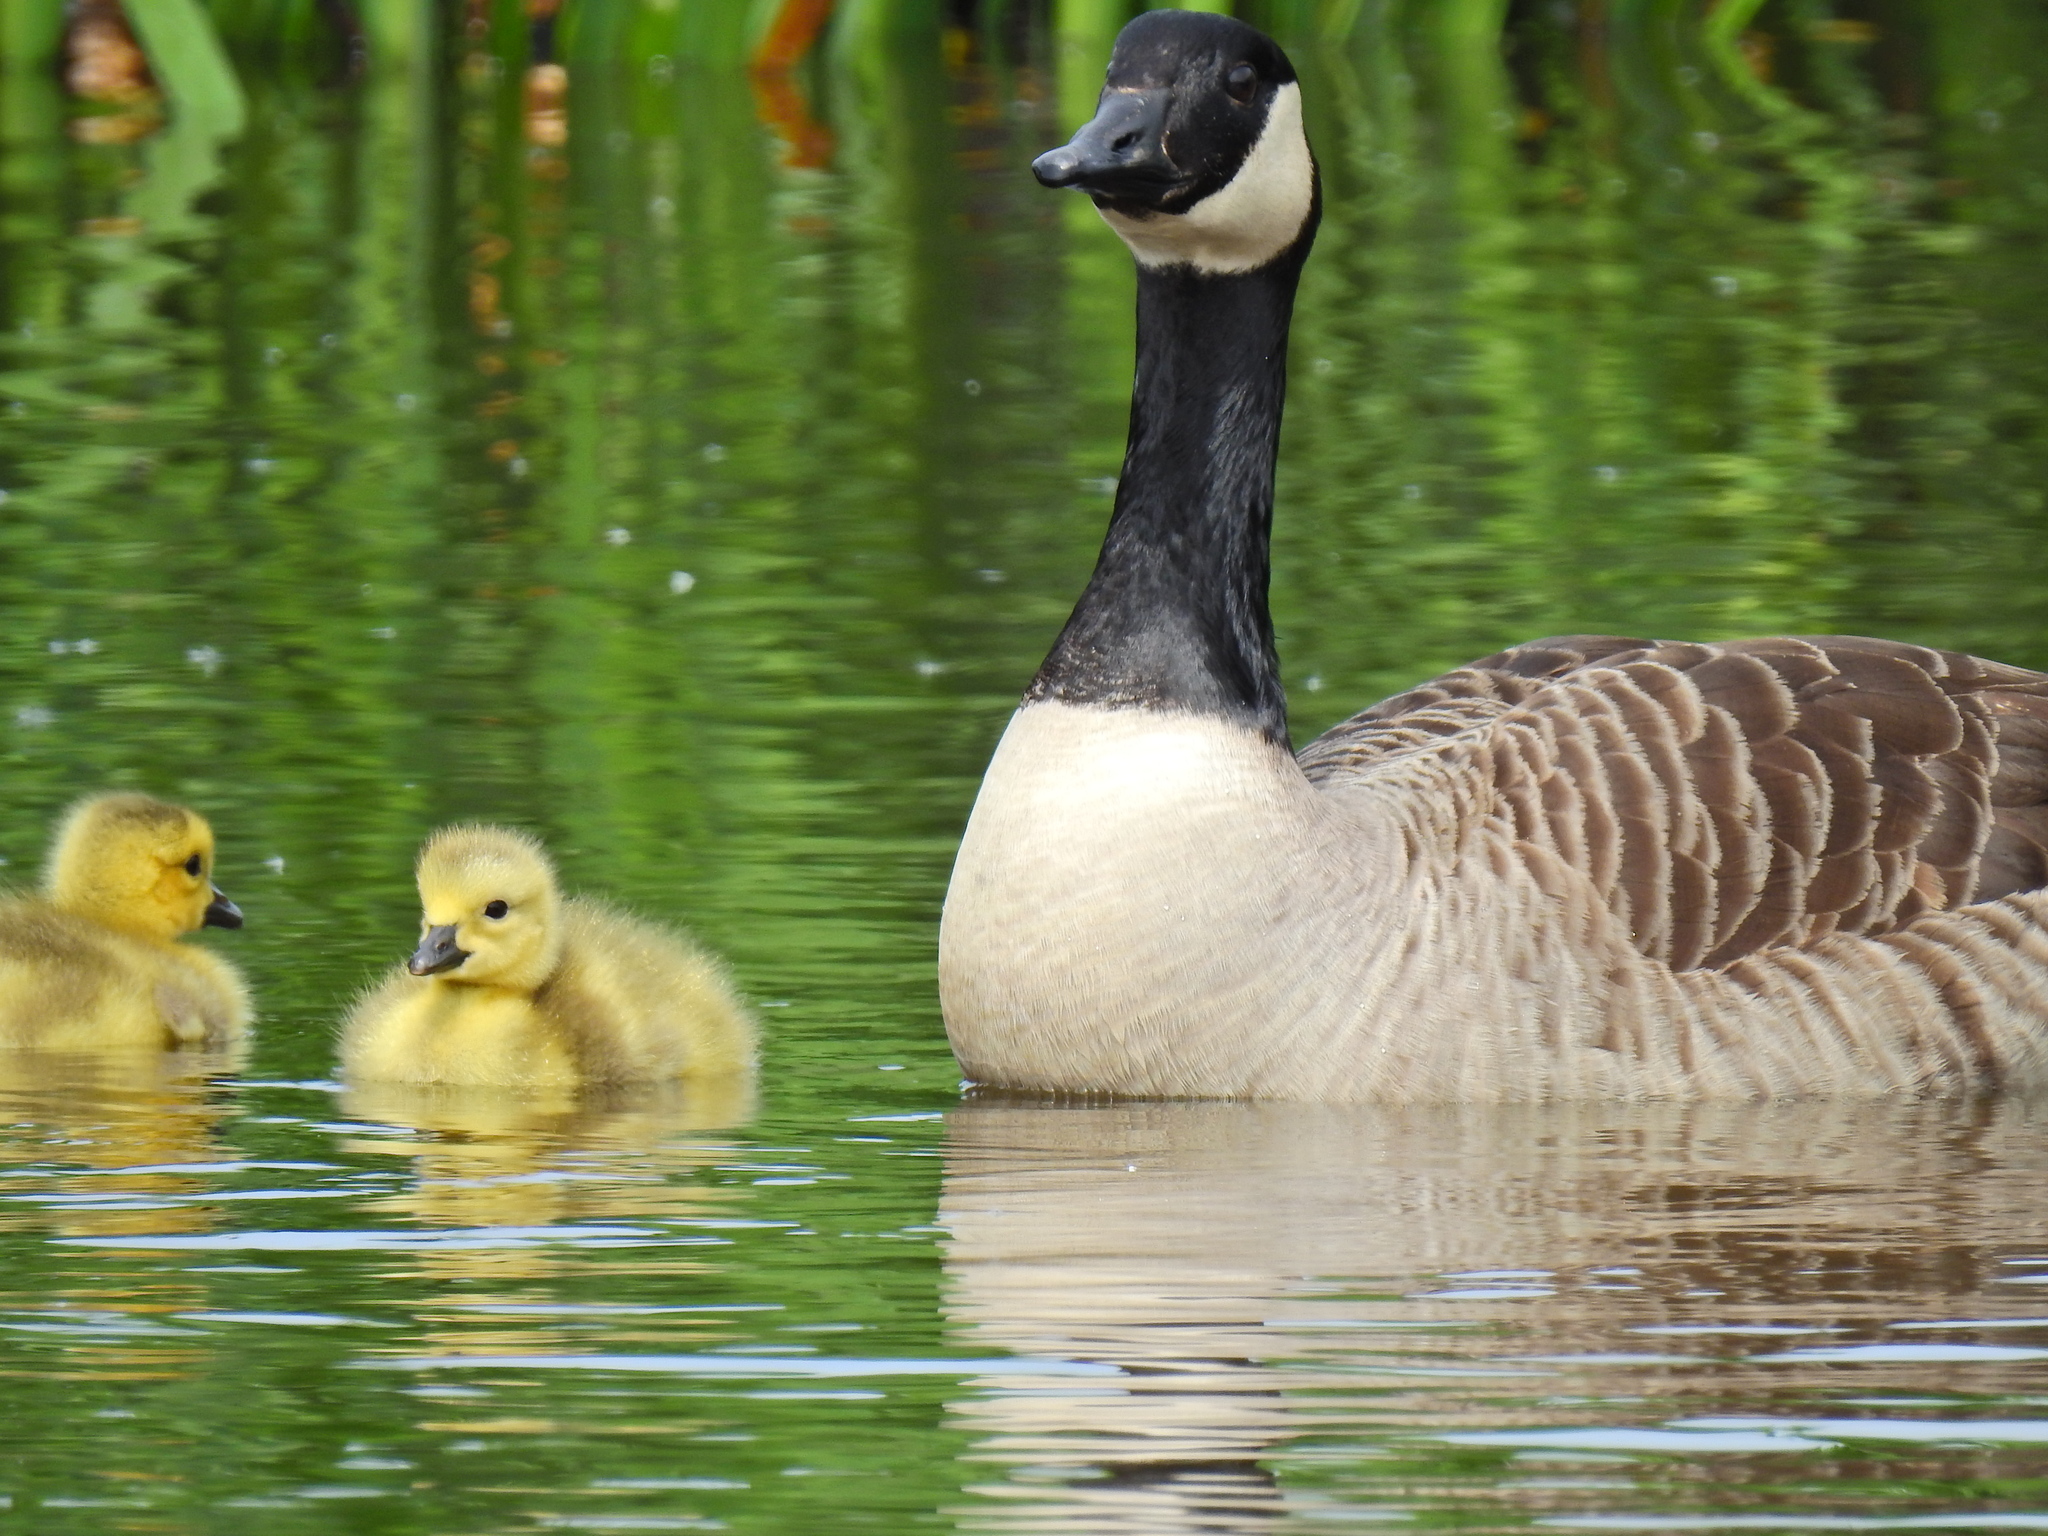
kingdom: Animalia
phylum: Chordata
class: Aves
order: Anseriformes
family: Anatidae
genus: Branta
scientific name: Branta canadensis
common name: Canada goose
